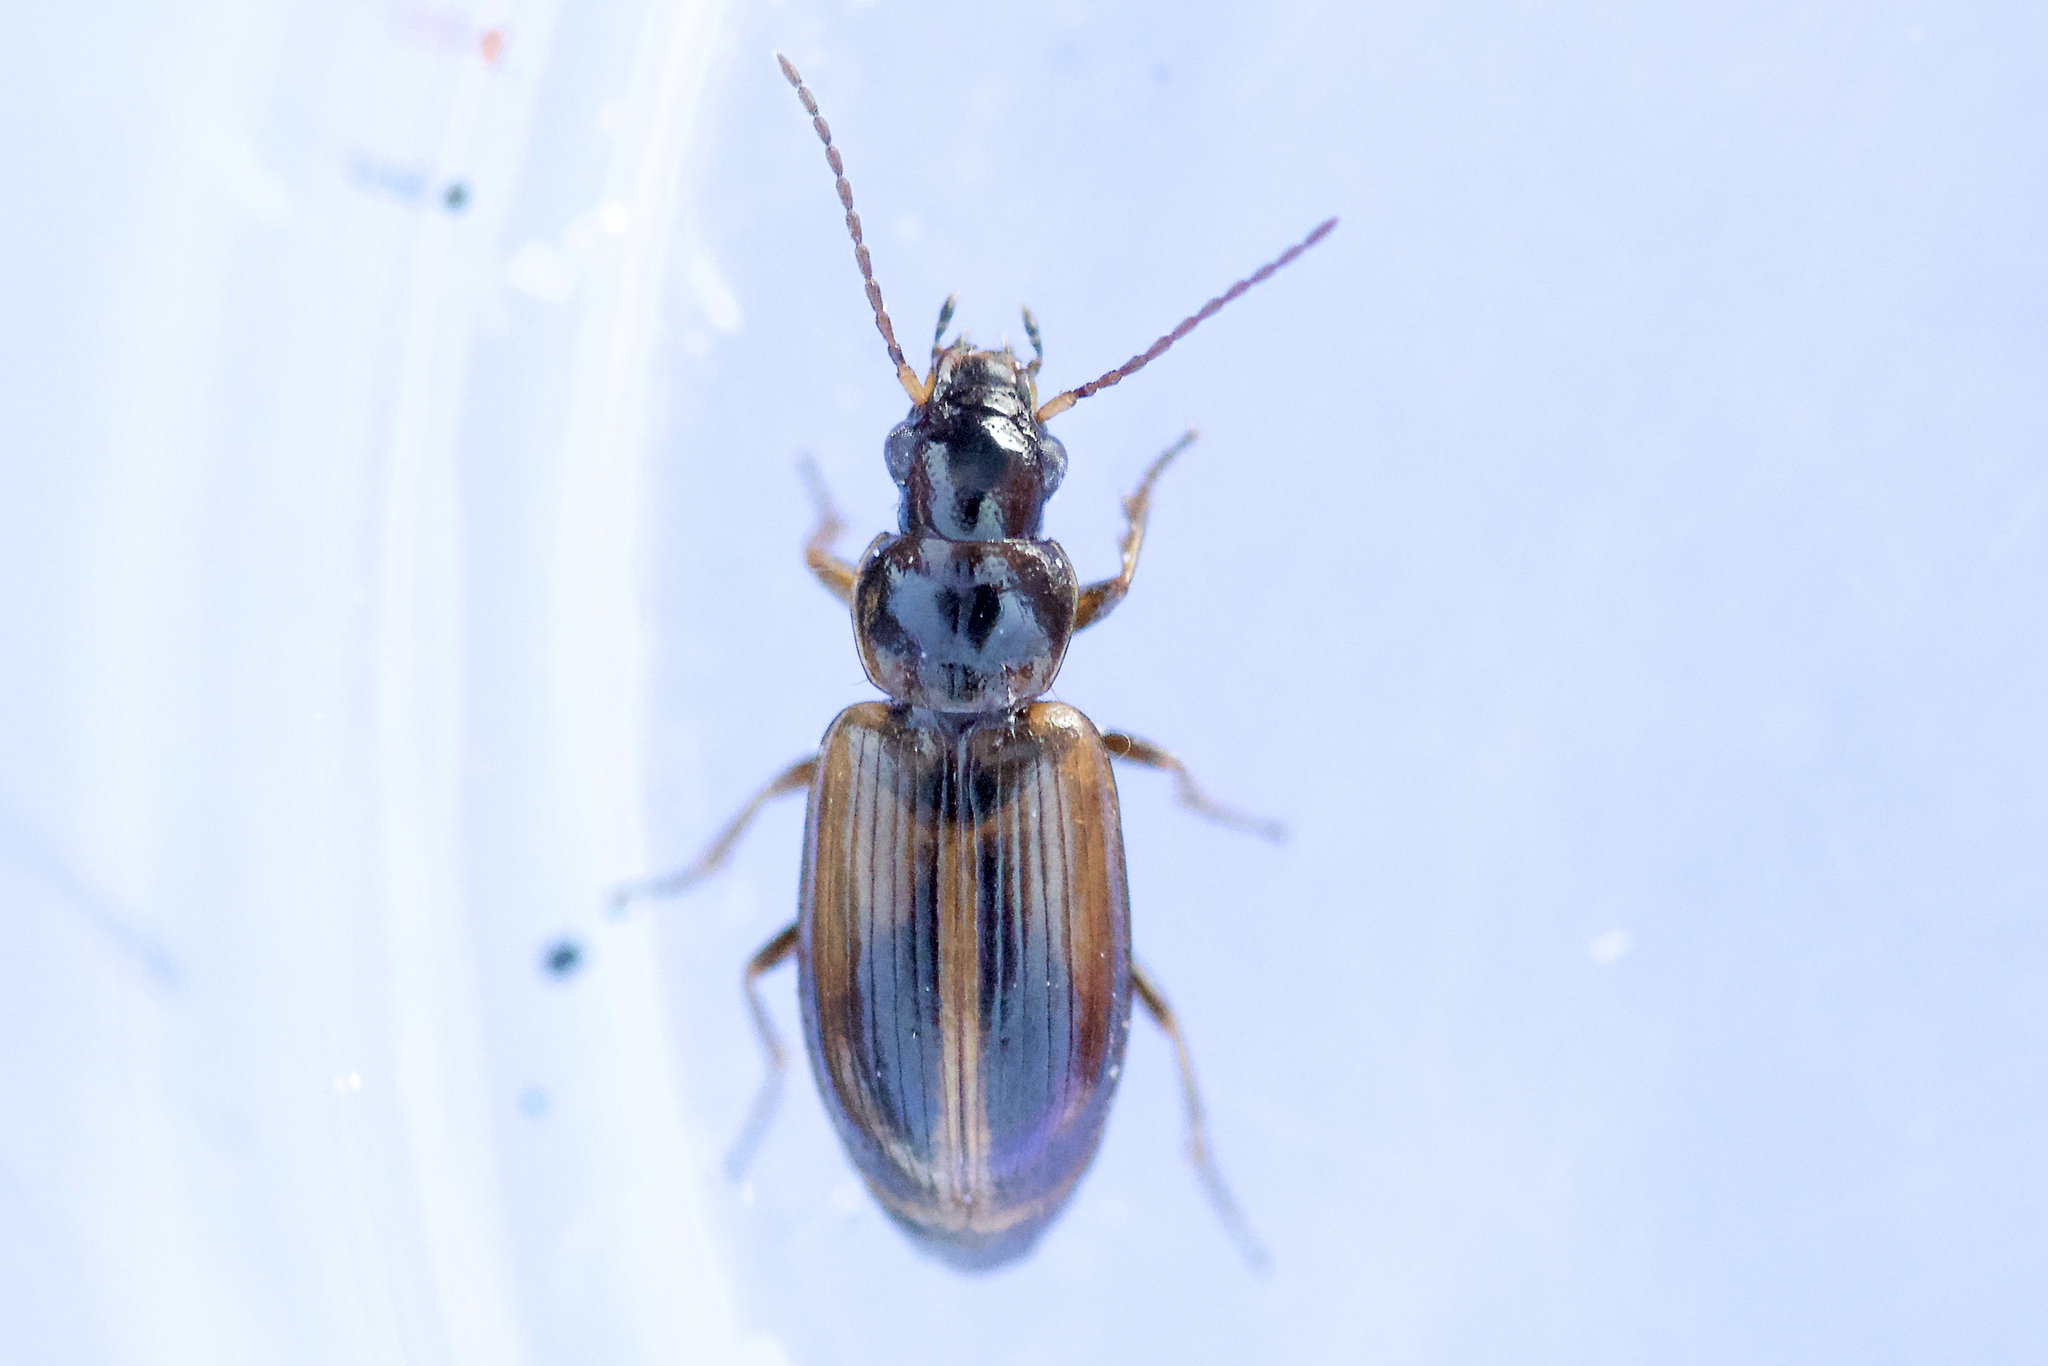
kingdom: Animalia
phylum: Arthropoda
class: Insecta
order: Coleoptera
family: Carabidae
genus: Dicheirotrichus
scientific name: Dicheirotrichus cognatus
